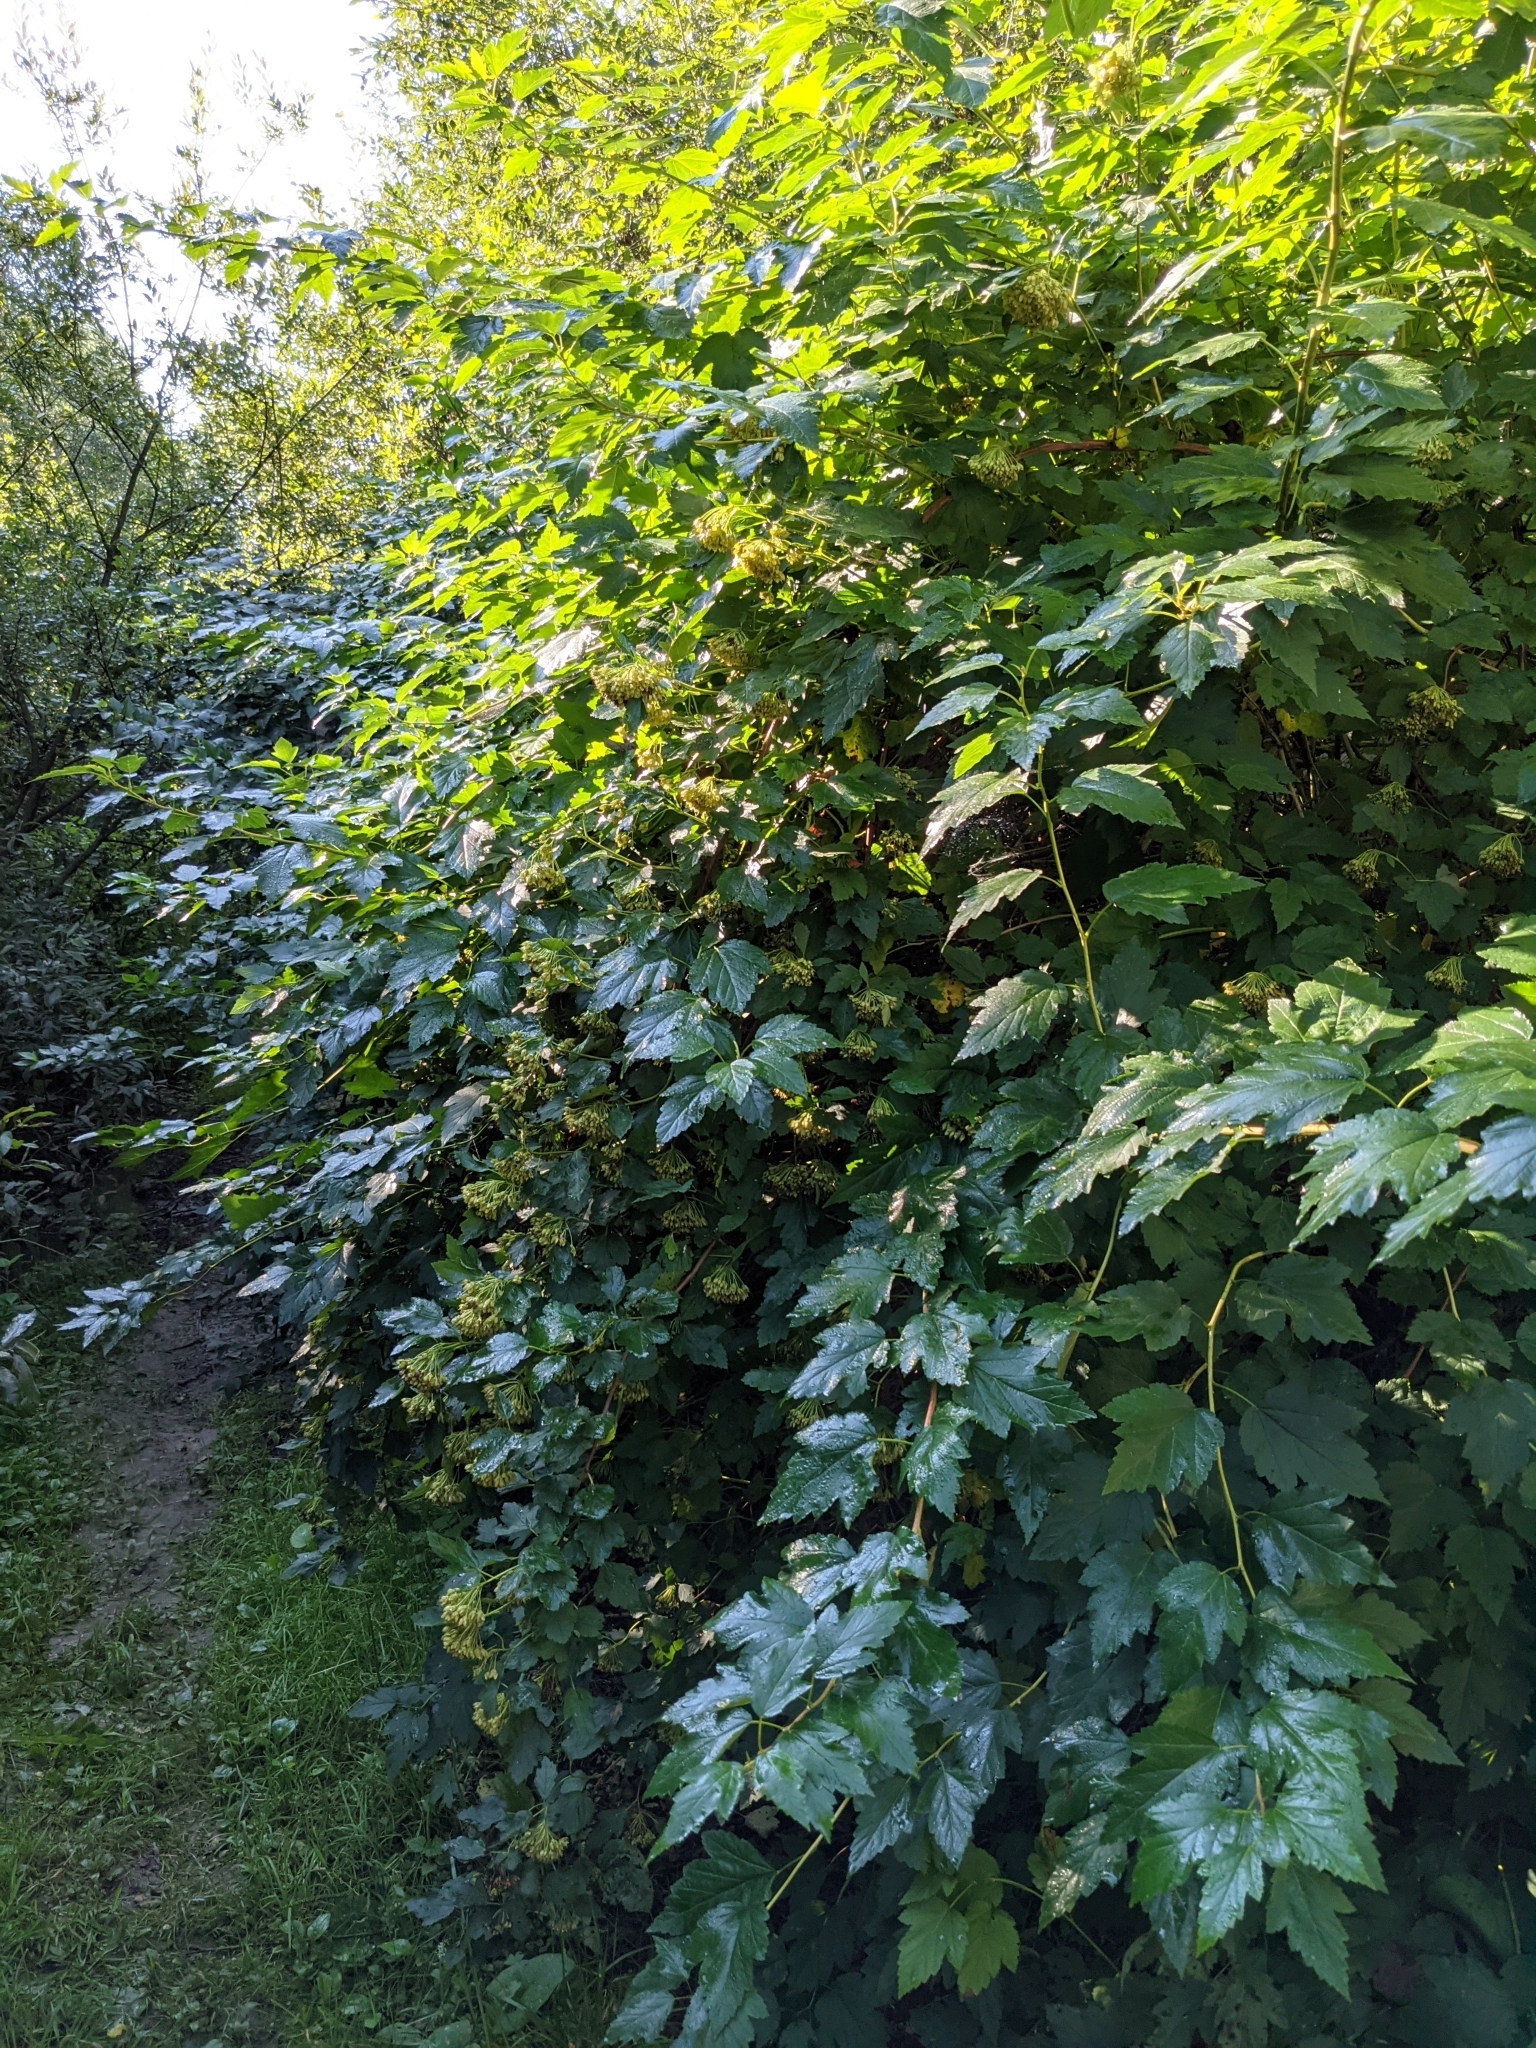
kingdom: Plantae
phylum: Tracheophyta
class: Magnoliopsida
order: Rosales
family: Rosaceae
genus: Physocarpus
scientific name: Physocarpus opulifolius
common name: Ninebark
